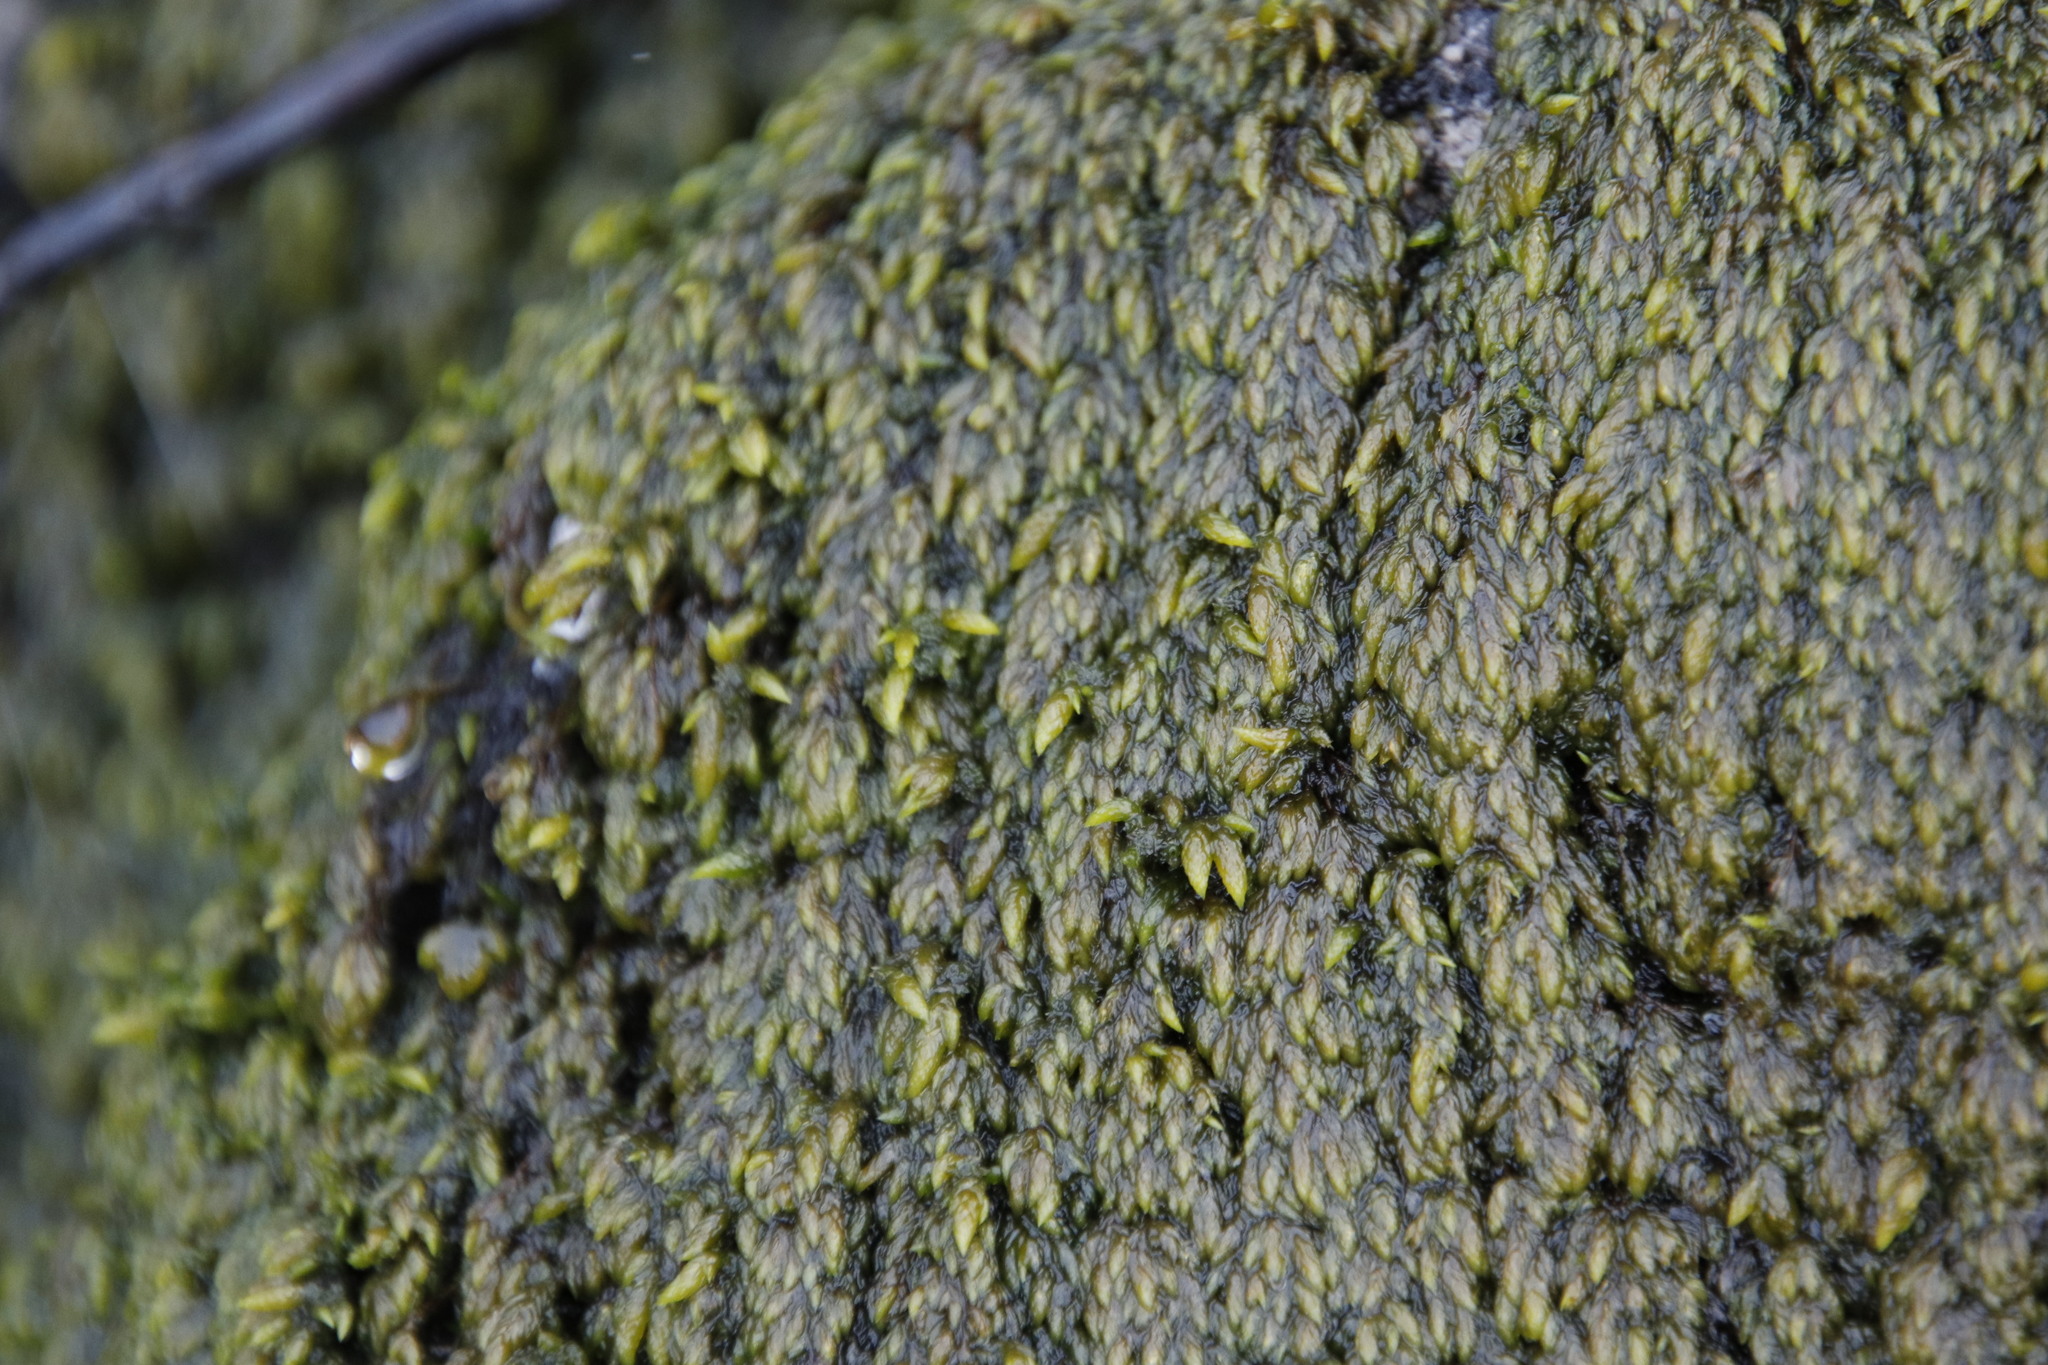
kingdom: Plantae
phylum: Bryophyta
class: Bryopsida
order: Hedwigiales
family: Hedwigiaceae
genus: Rhacocarpus
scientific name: Rhacocarpus purpurascens
